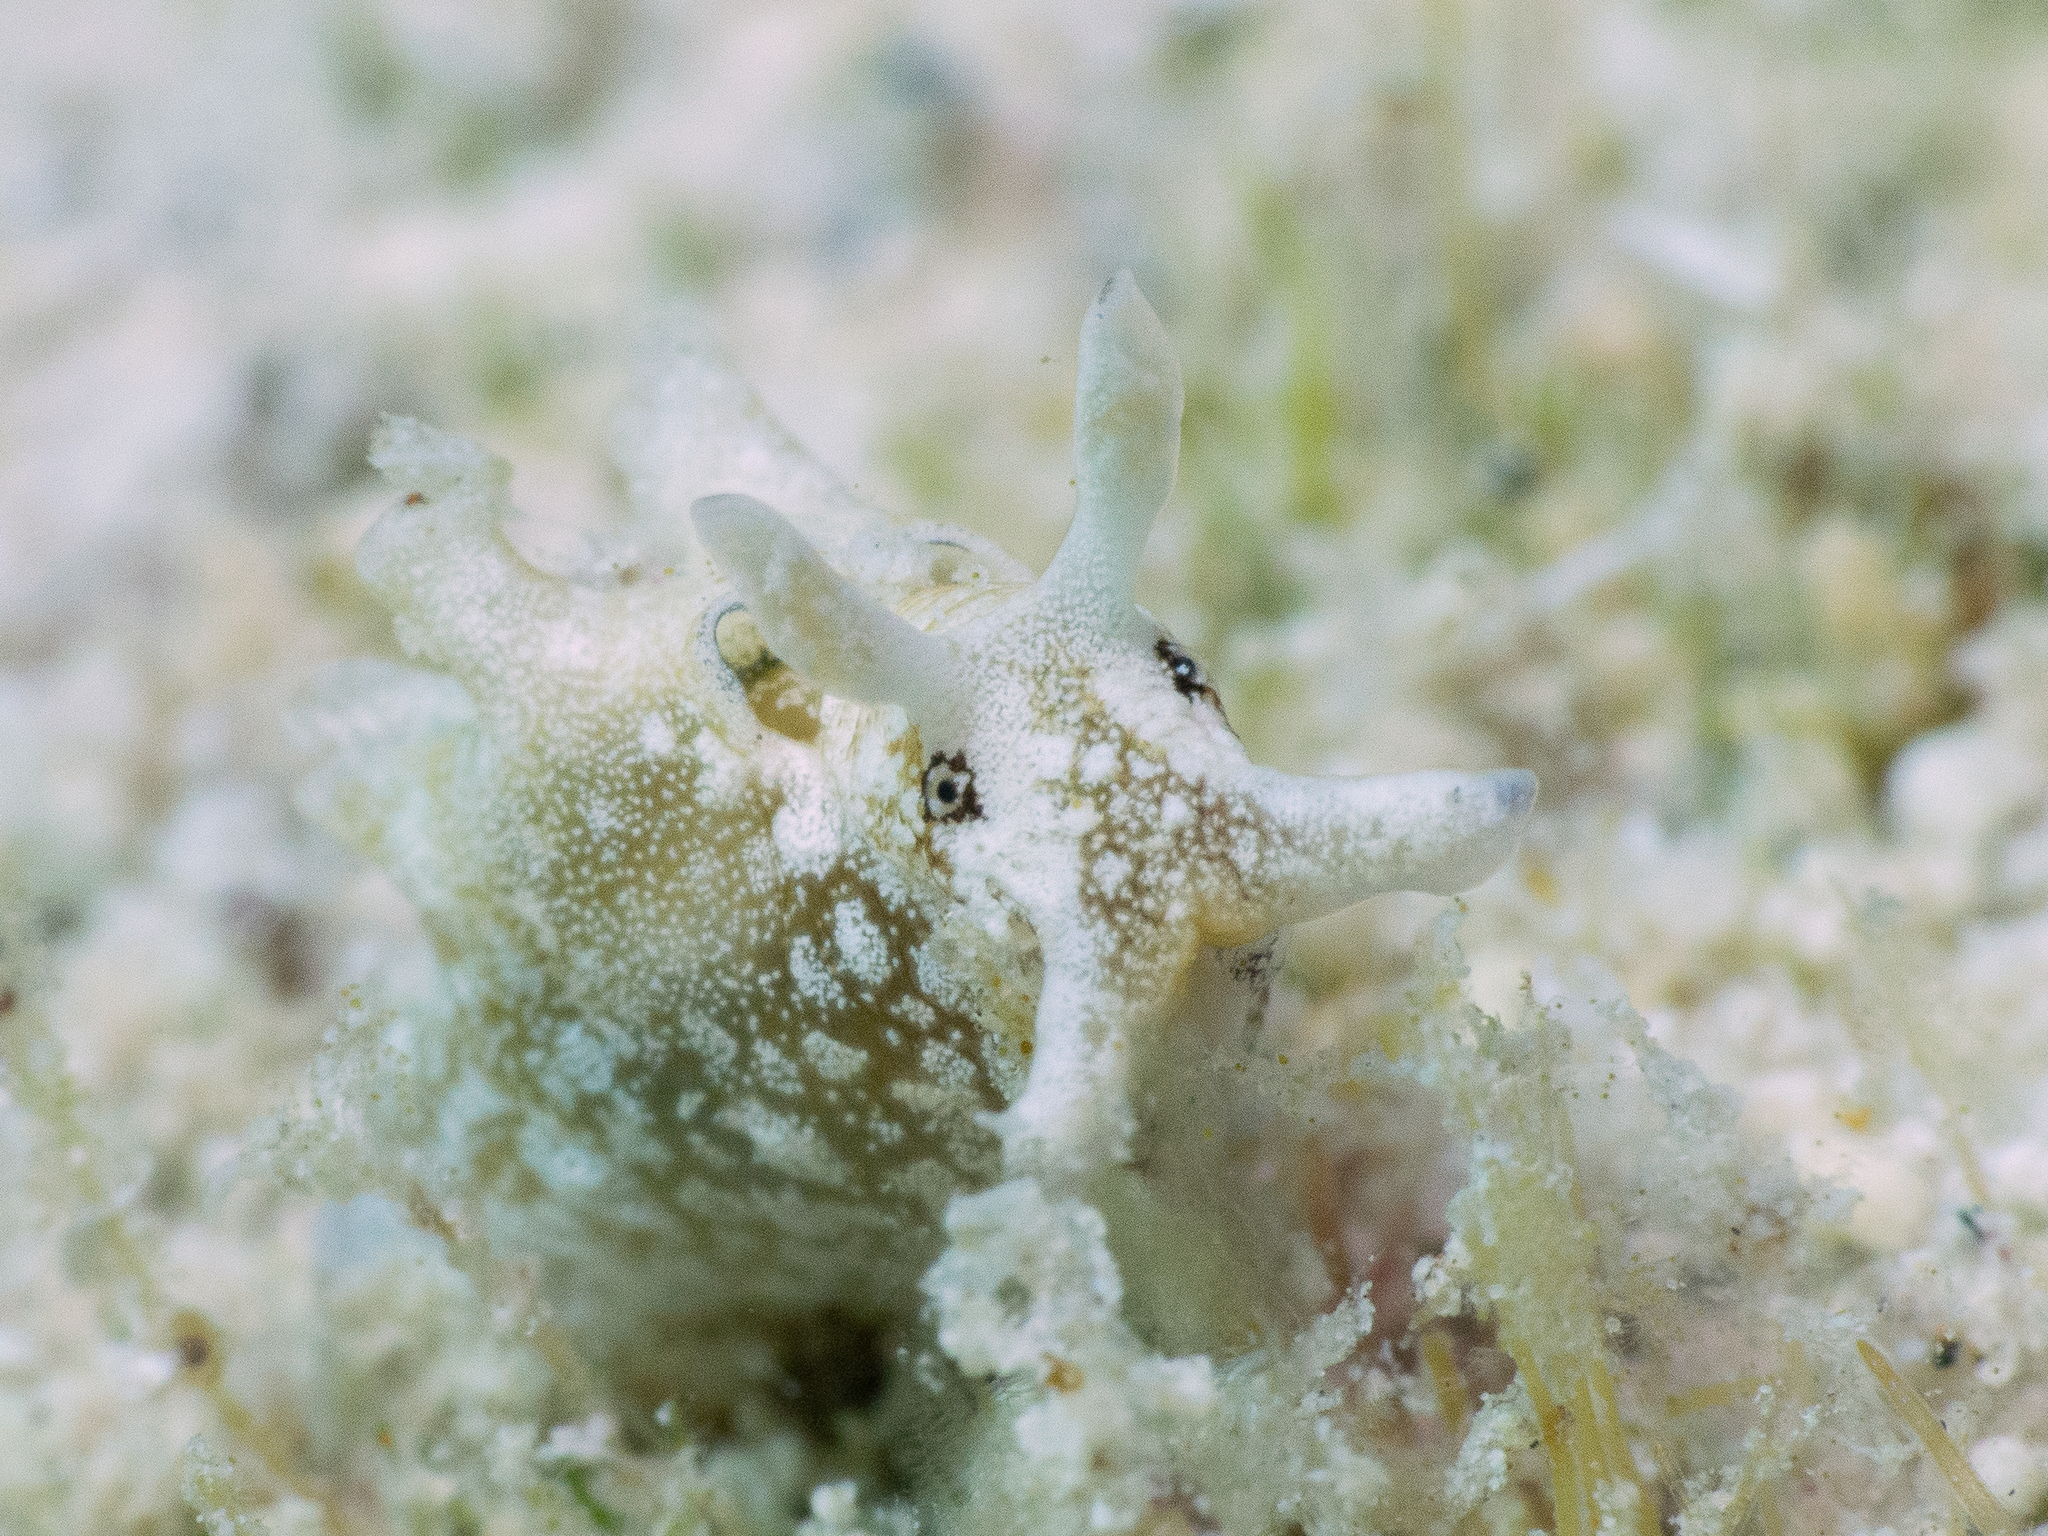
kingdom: Animalia
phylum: Mollusca
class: Gastropoda
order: Aplysiida
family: Aplysiidae
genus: Aplysia
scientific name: Aplysia parvula
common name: Dwarf sea hare
